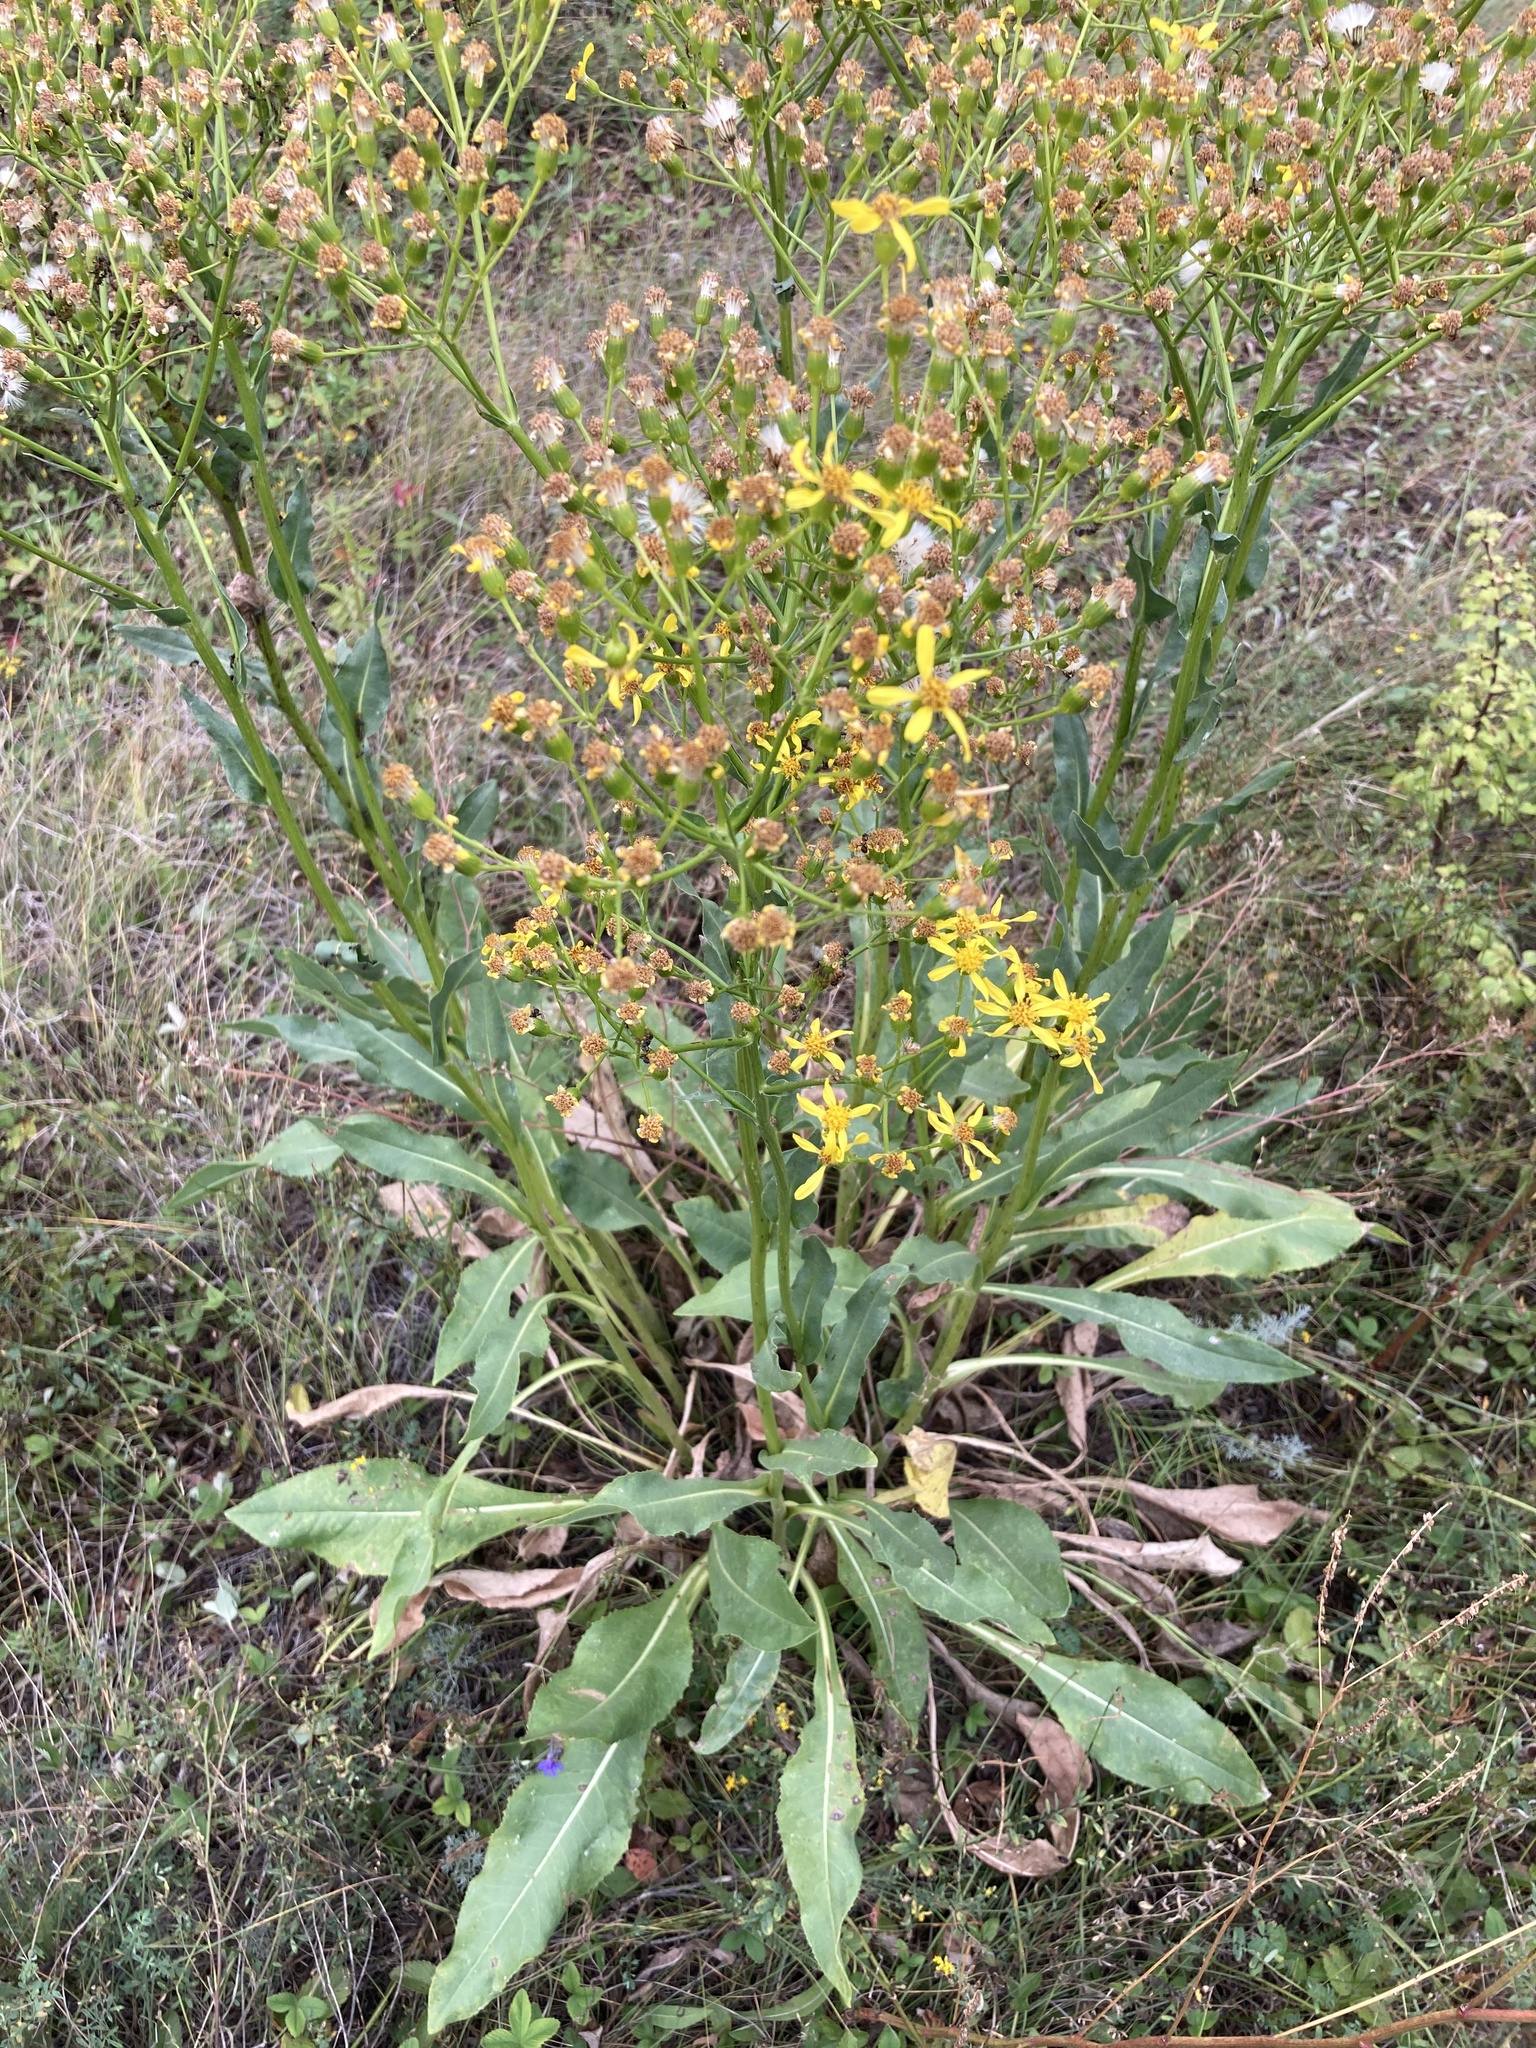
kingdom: Plantae
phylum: Tracheophyta
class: Magnoliopsida
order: Asterales
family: Asteraceae
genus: Senecio
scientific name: Senecio doria
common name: Golden ragwort
